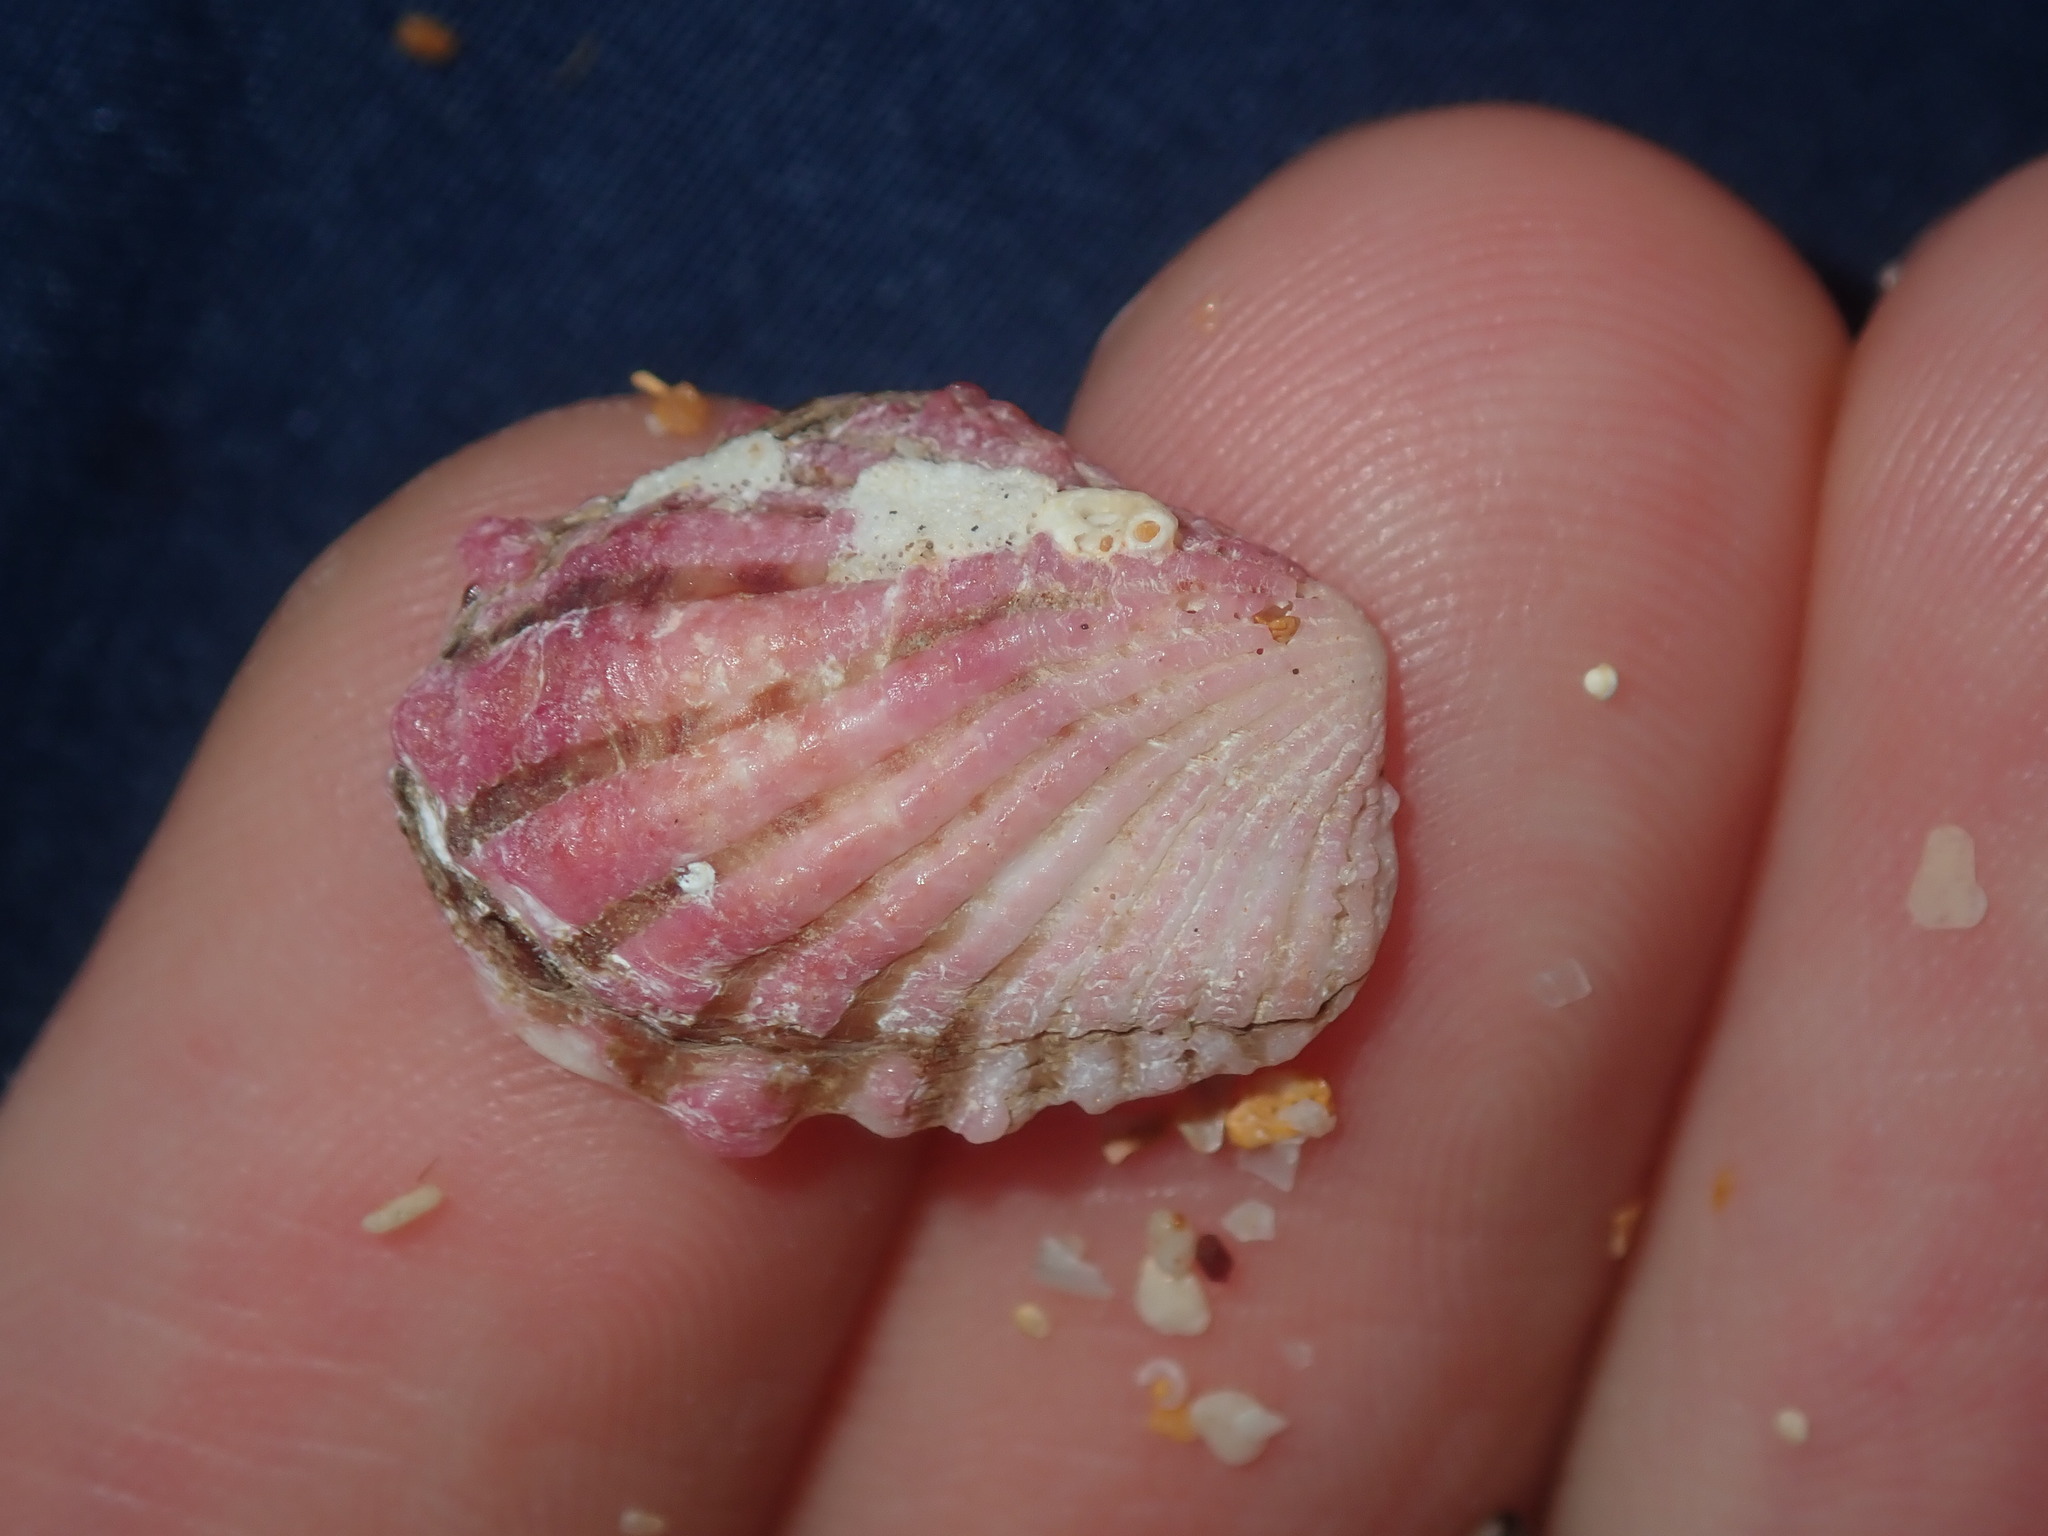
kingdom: Animalia
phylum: Mollusca
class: Bivalvia
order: Carditida
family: Carditidae
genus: Cardita
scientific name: Cardita crassicosta
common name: Large-ribbed cardita
